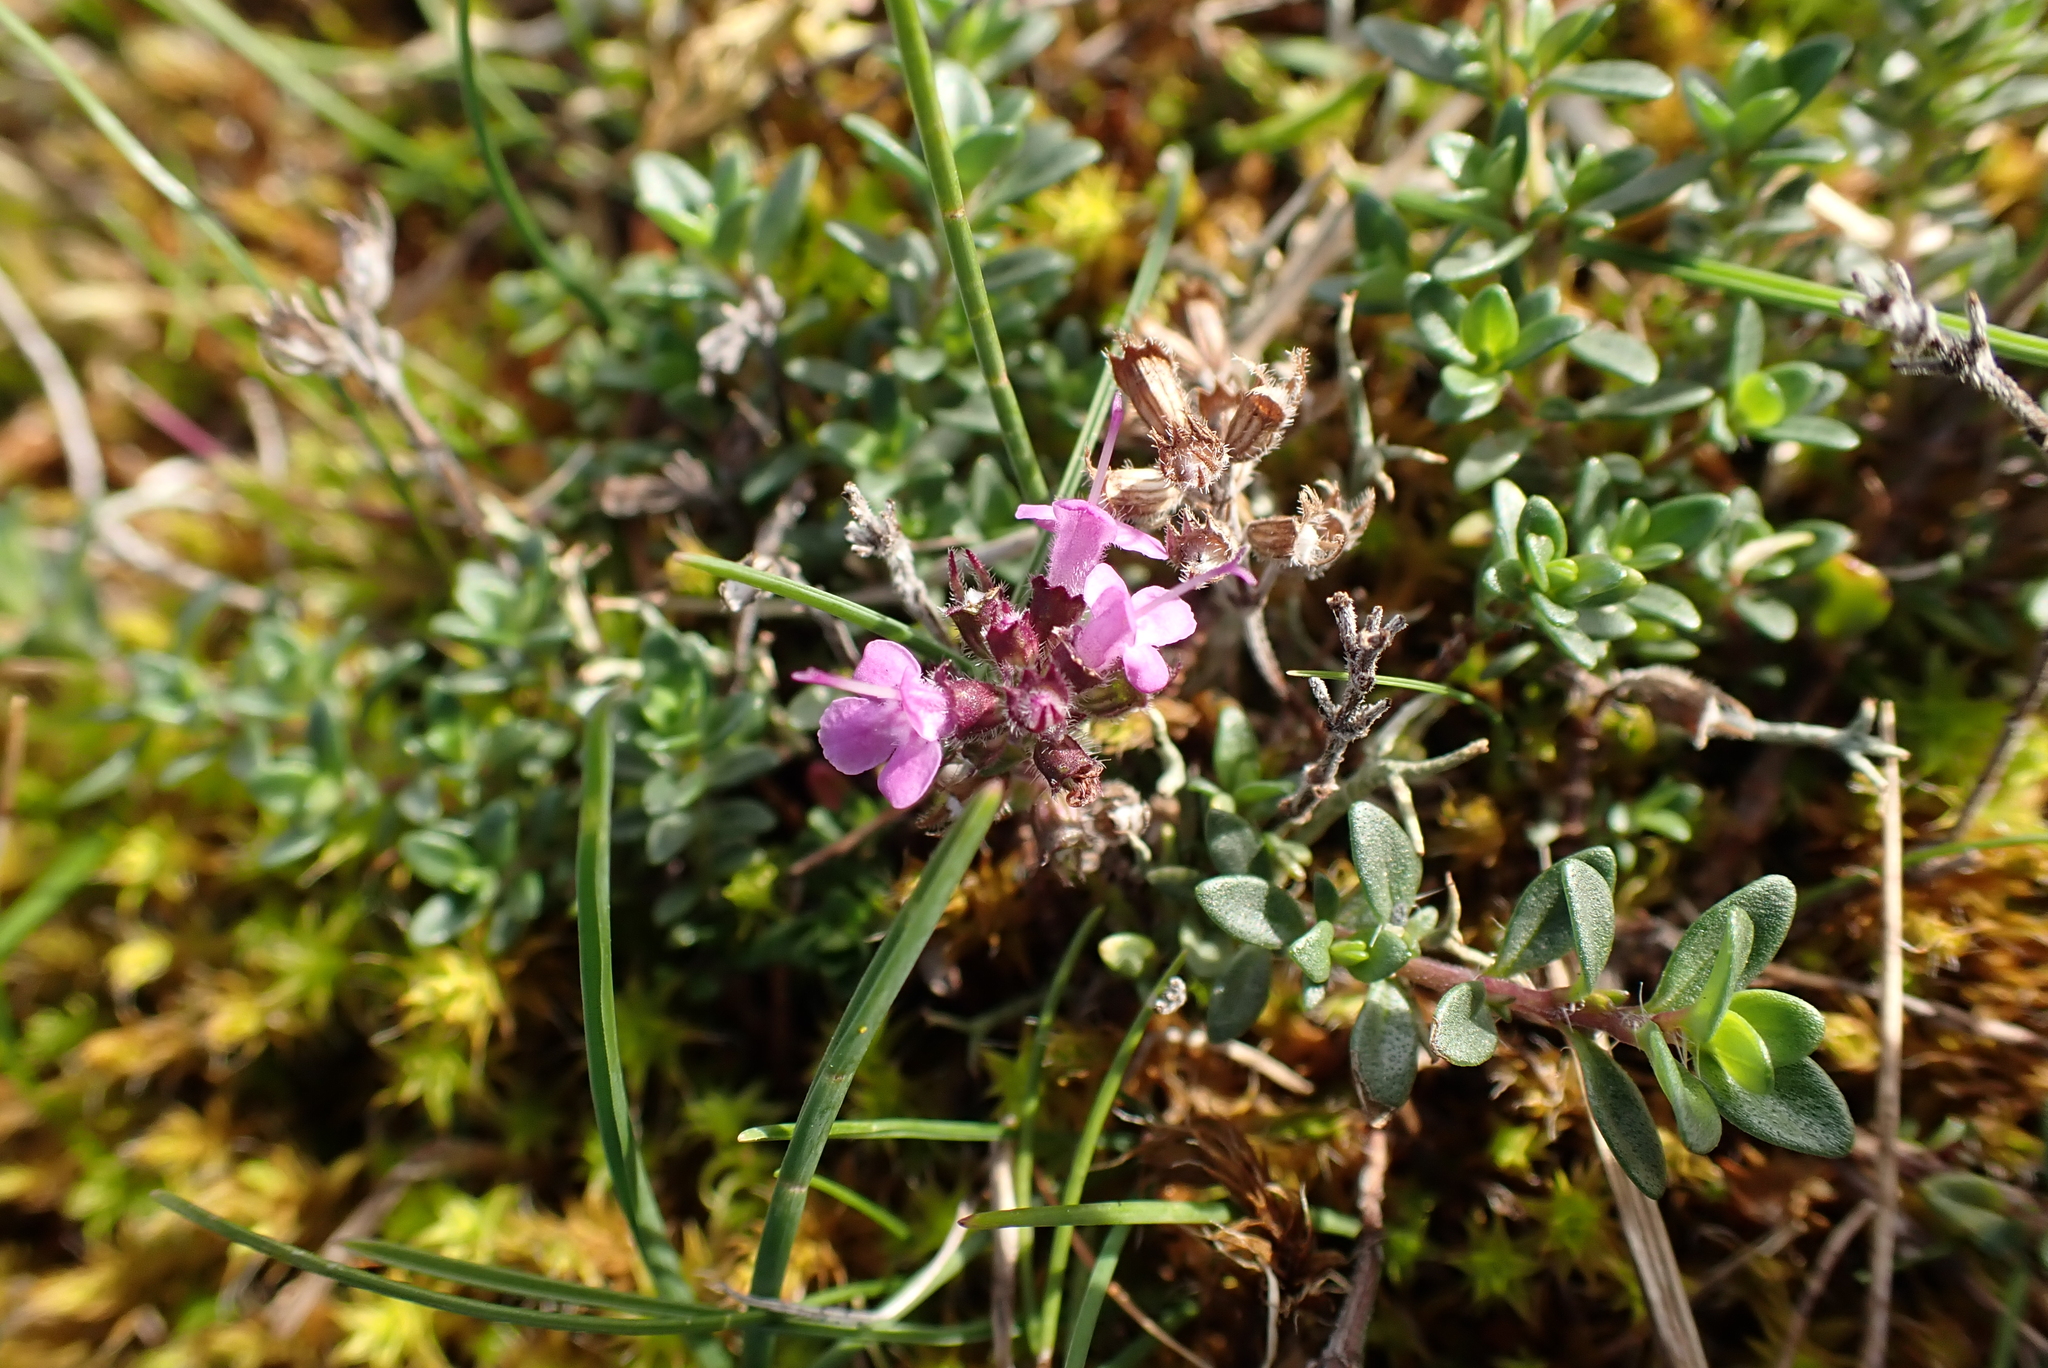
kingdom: Plantae
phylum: Tracheophyta
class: Magnoliopsida
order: Lamiales
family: Lamiaceae
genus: Thymus
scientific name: Thymus praecox
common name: Wild thyme
